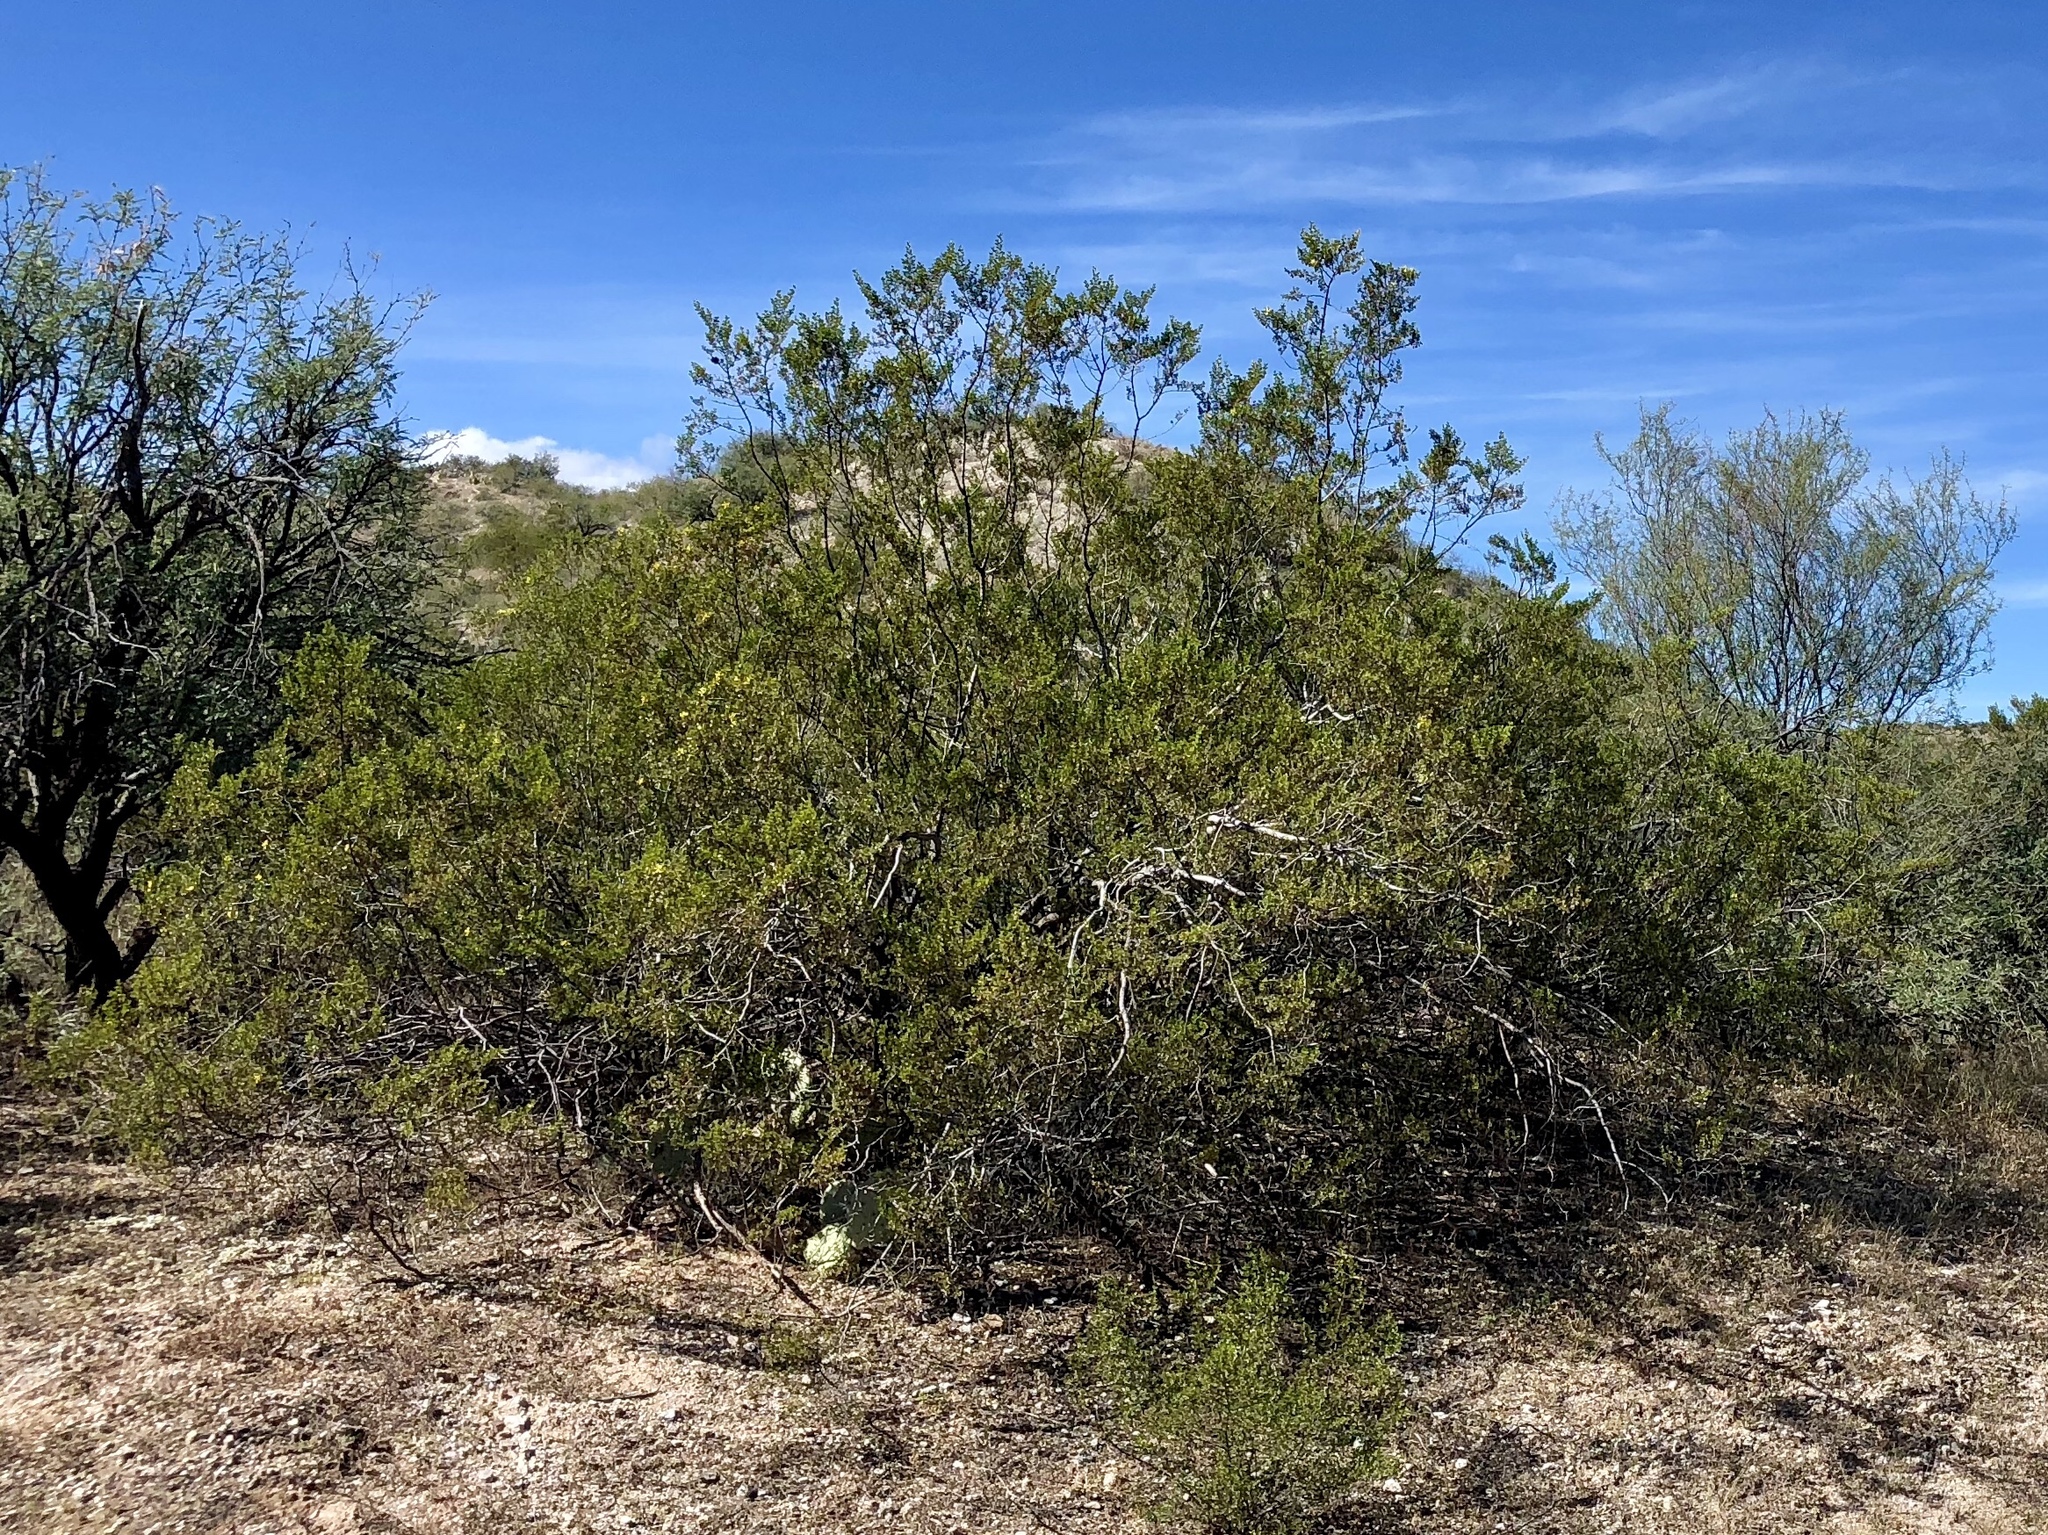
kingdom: Plantae
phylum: Tracheophyta
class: Magnoliopsida
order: Zygophyllales
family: Zygophyllaceae
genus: Larrea
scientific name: Larrea tridentata
